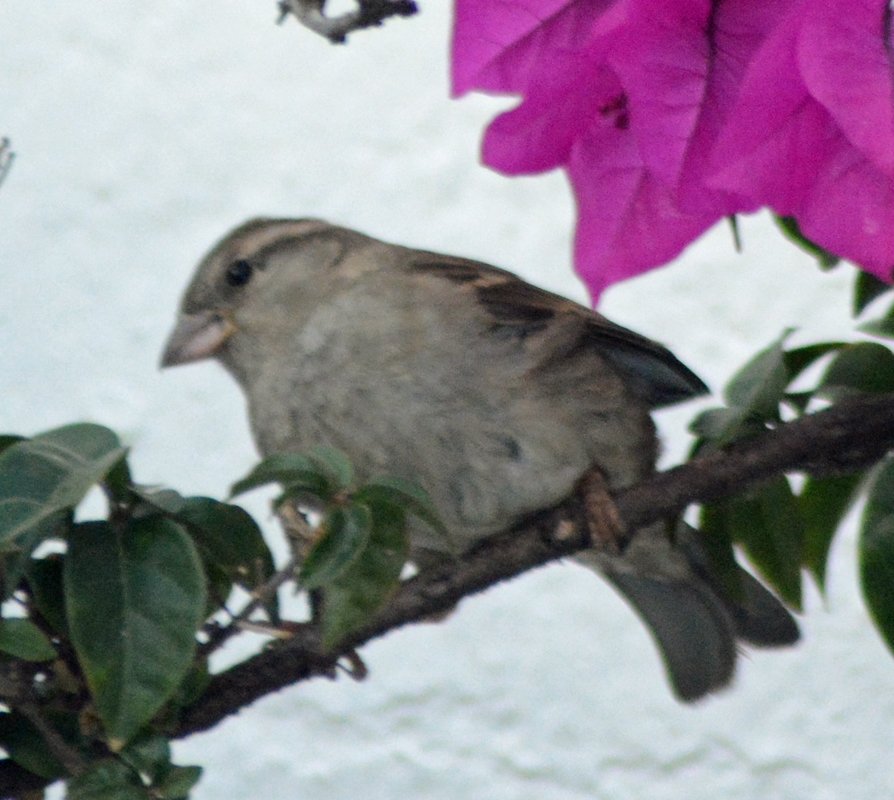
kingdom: Animalia
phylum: Chordata
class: Aves
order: Passeriformes
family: Passeridae
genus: Passer
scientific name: Passer domesticus
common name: House sparrow
